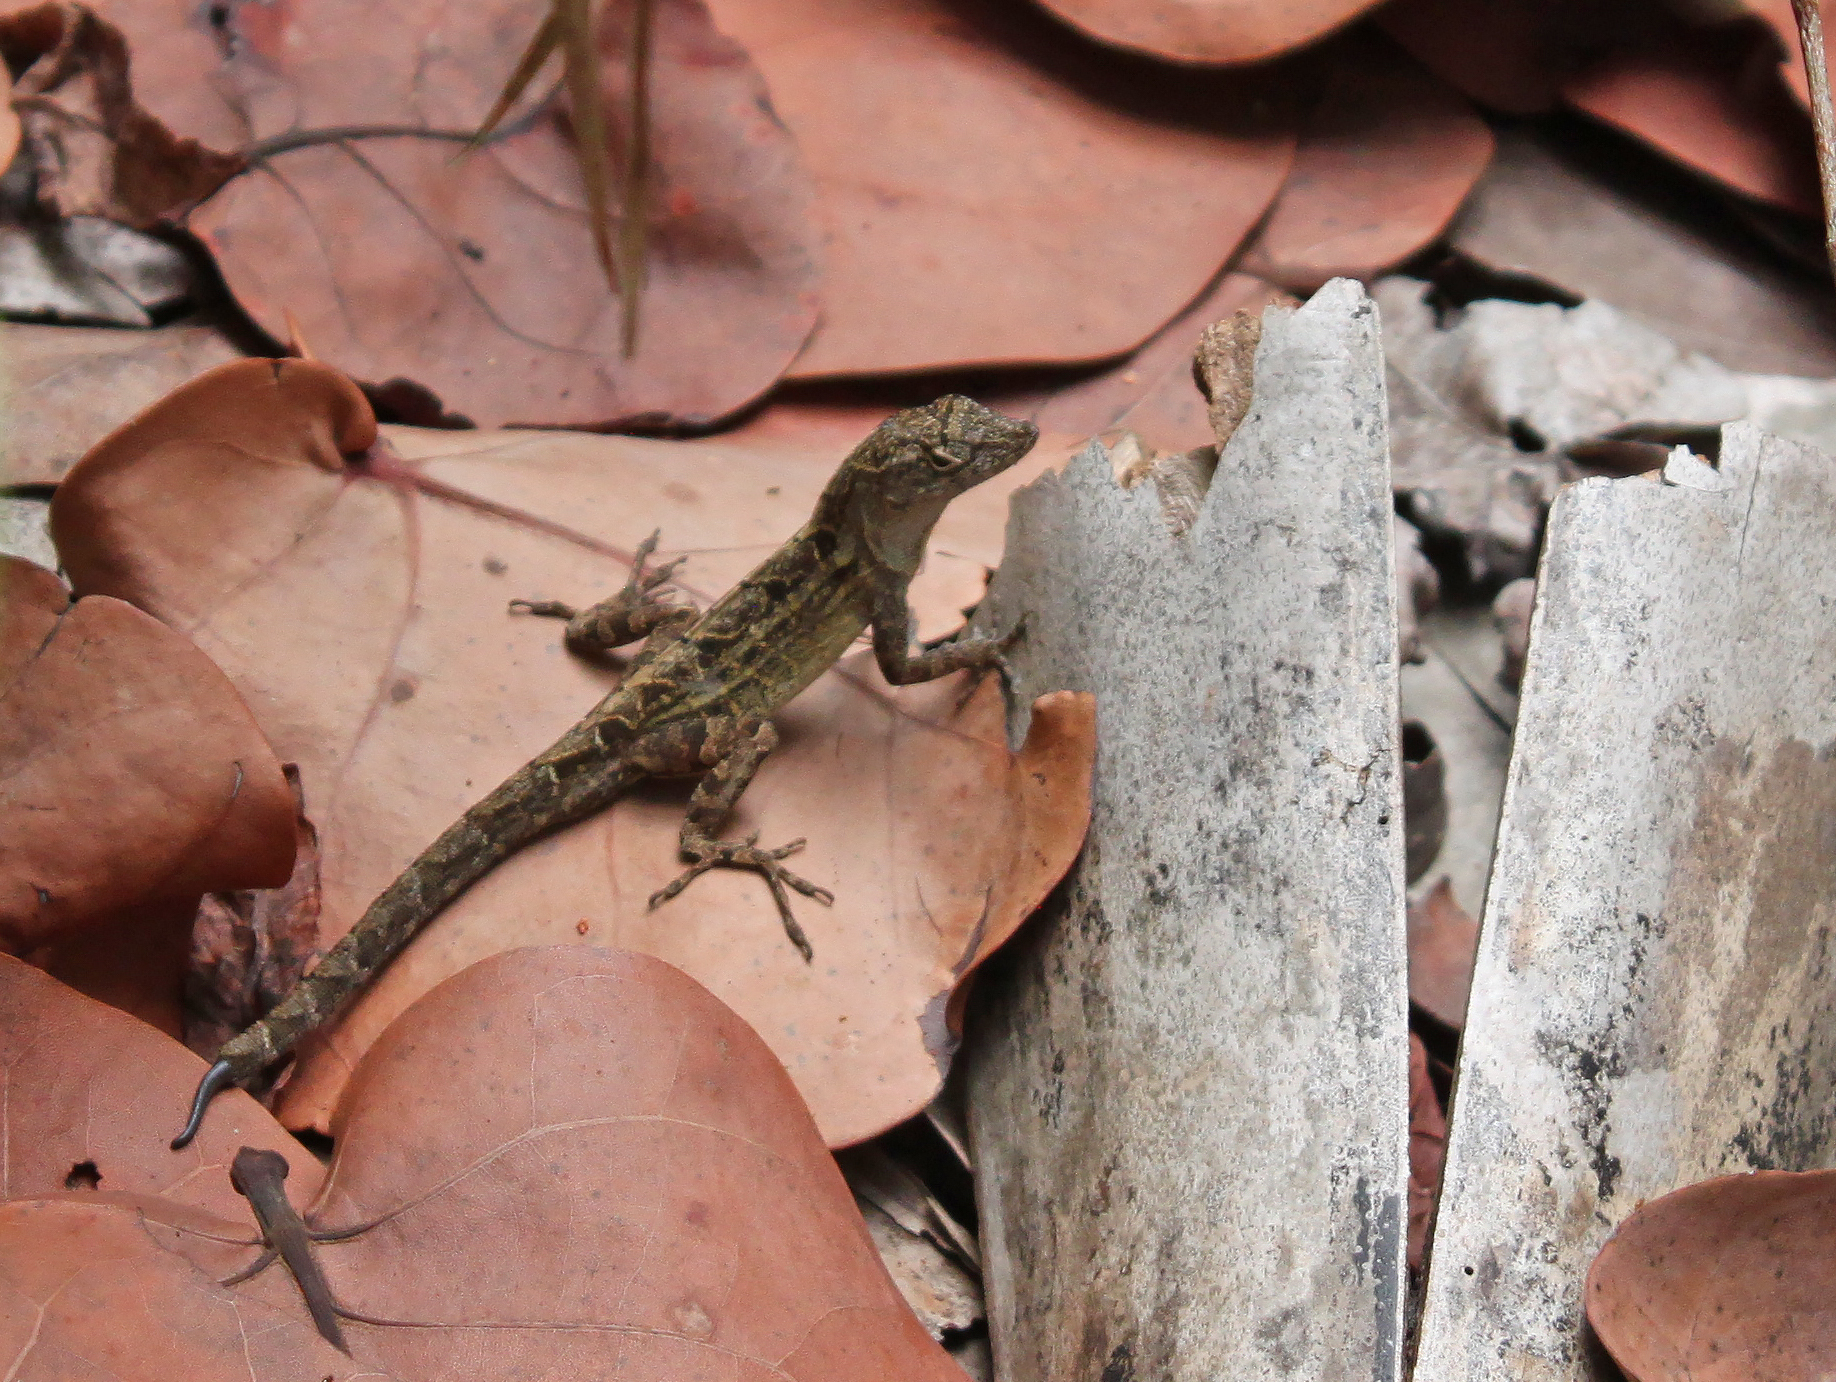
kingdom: Animalia
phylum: Chordata
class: Squamata
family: Dactyloidae
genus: Anolis
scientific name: Anolis sagrei
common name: Brown anole
